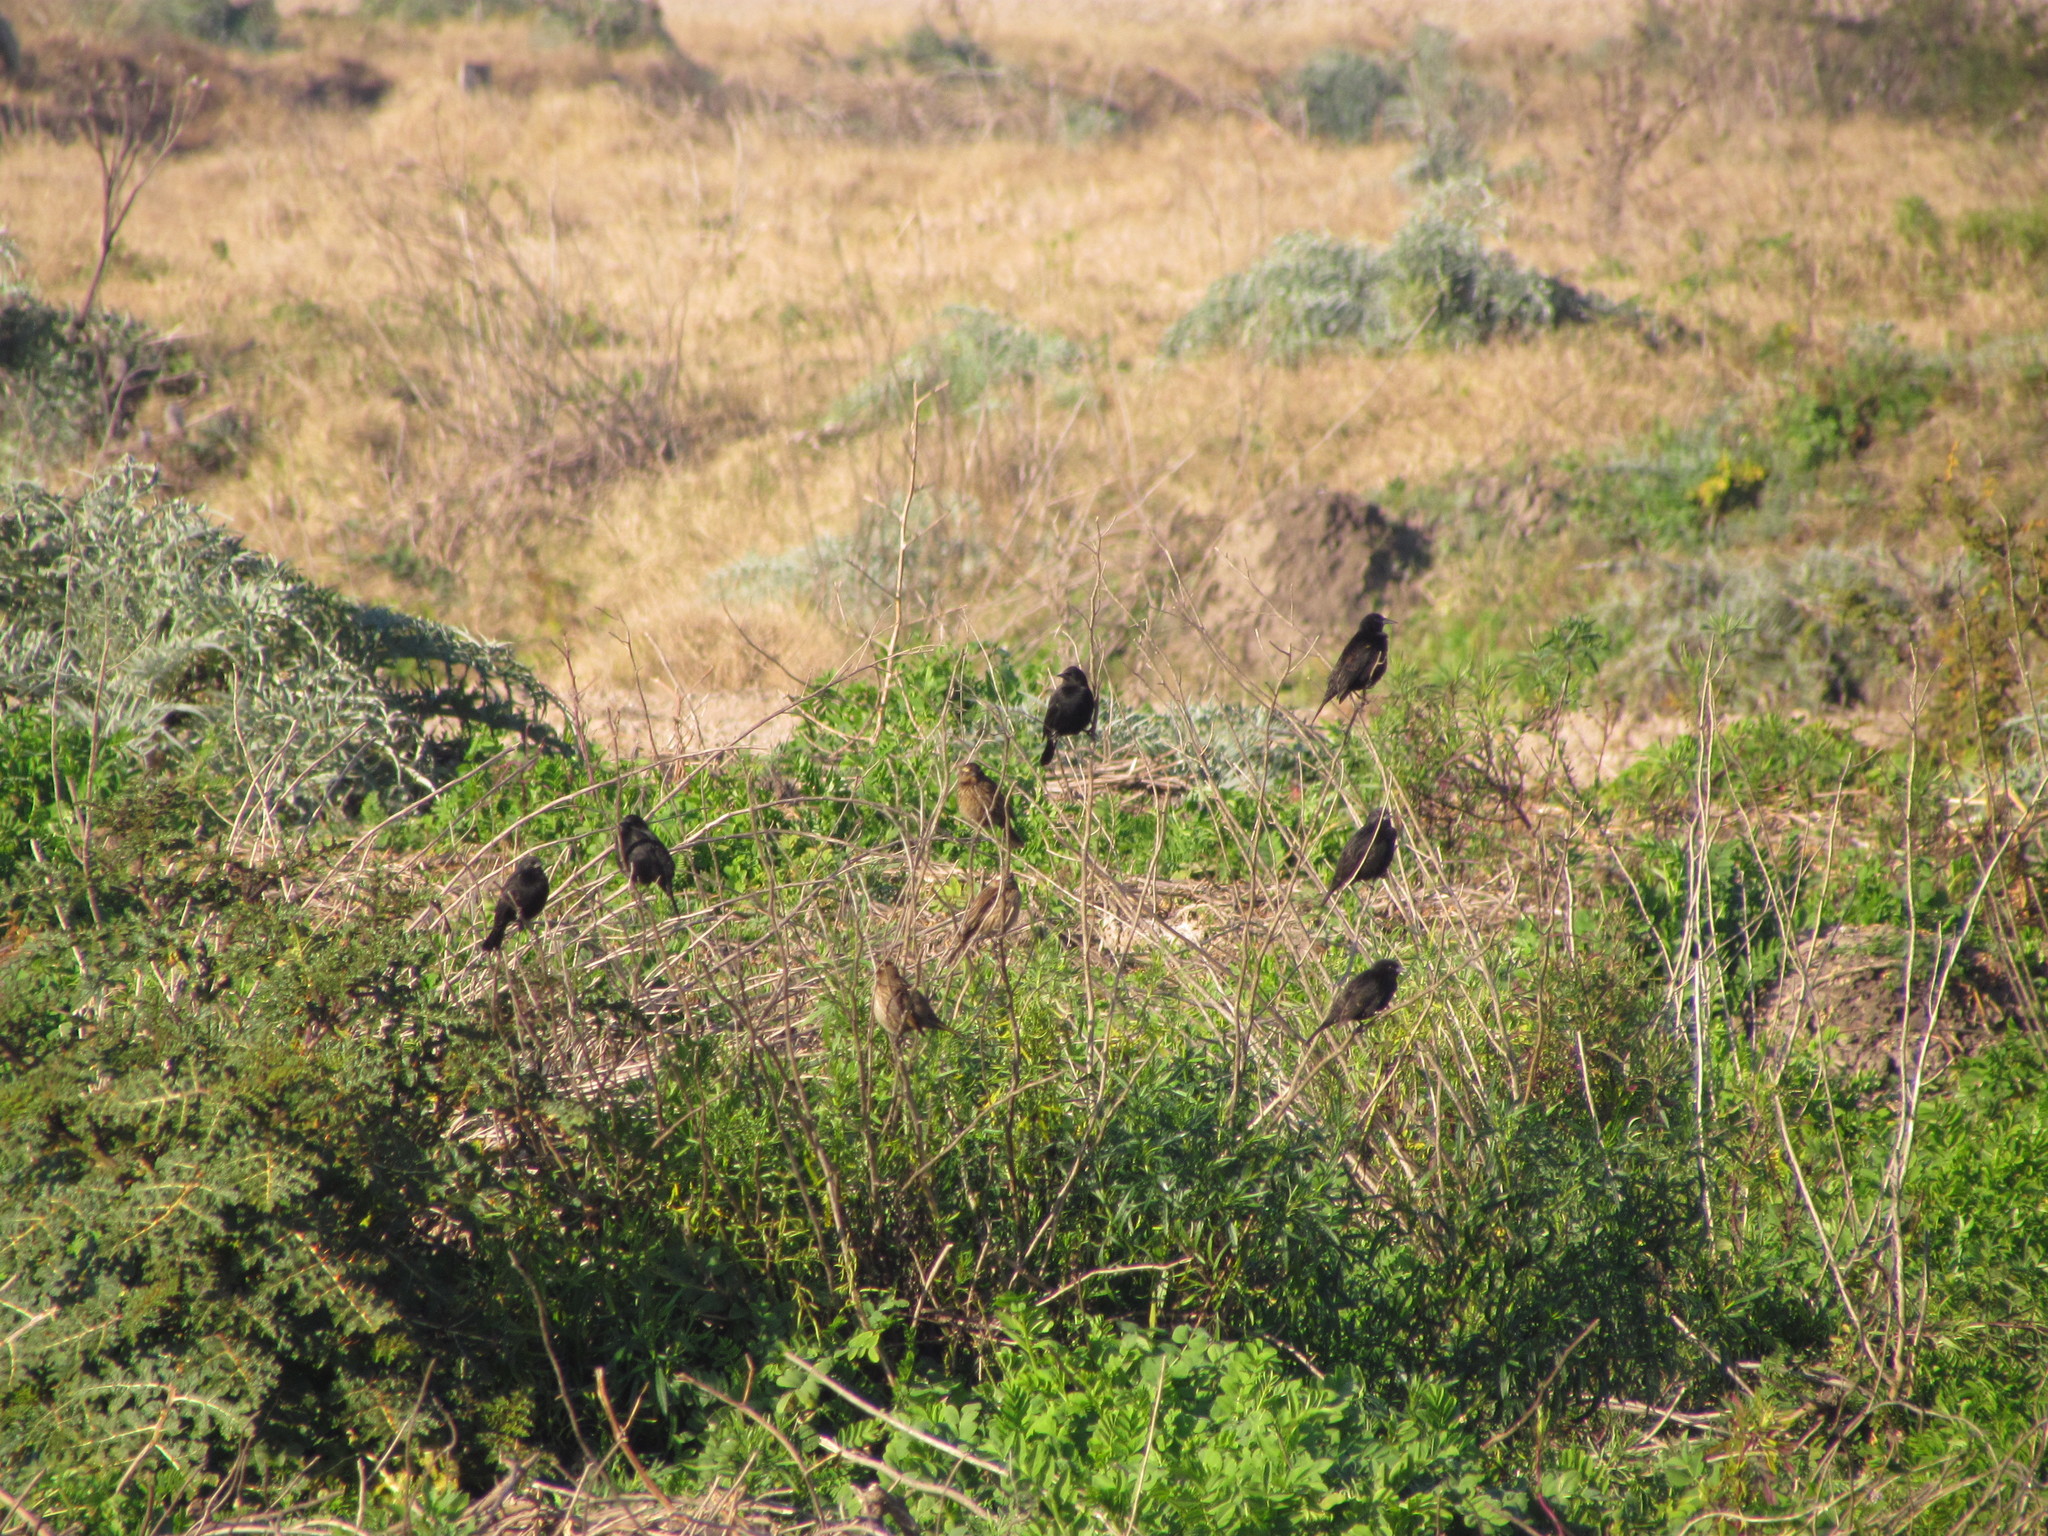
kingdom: Animalia
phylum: Chordata
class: Aves
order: Passeriformes
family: Icteridae
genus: Agelasticus
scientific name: Agelasticus thilius
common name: Yellow-winged blackbird
